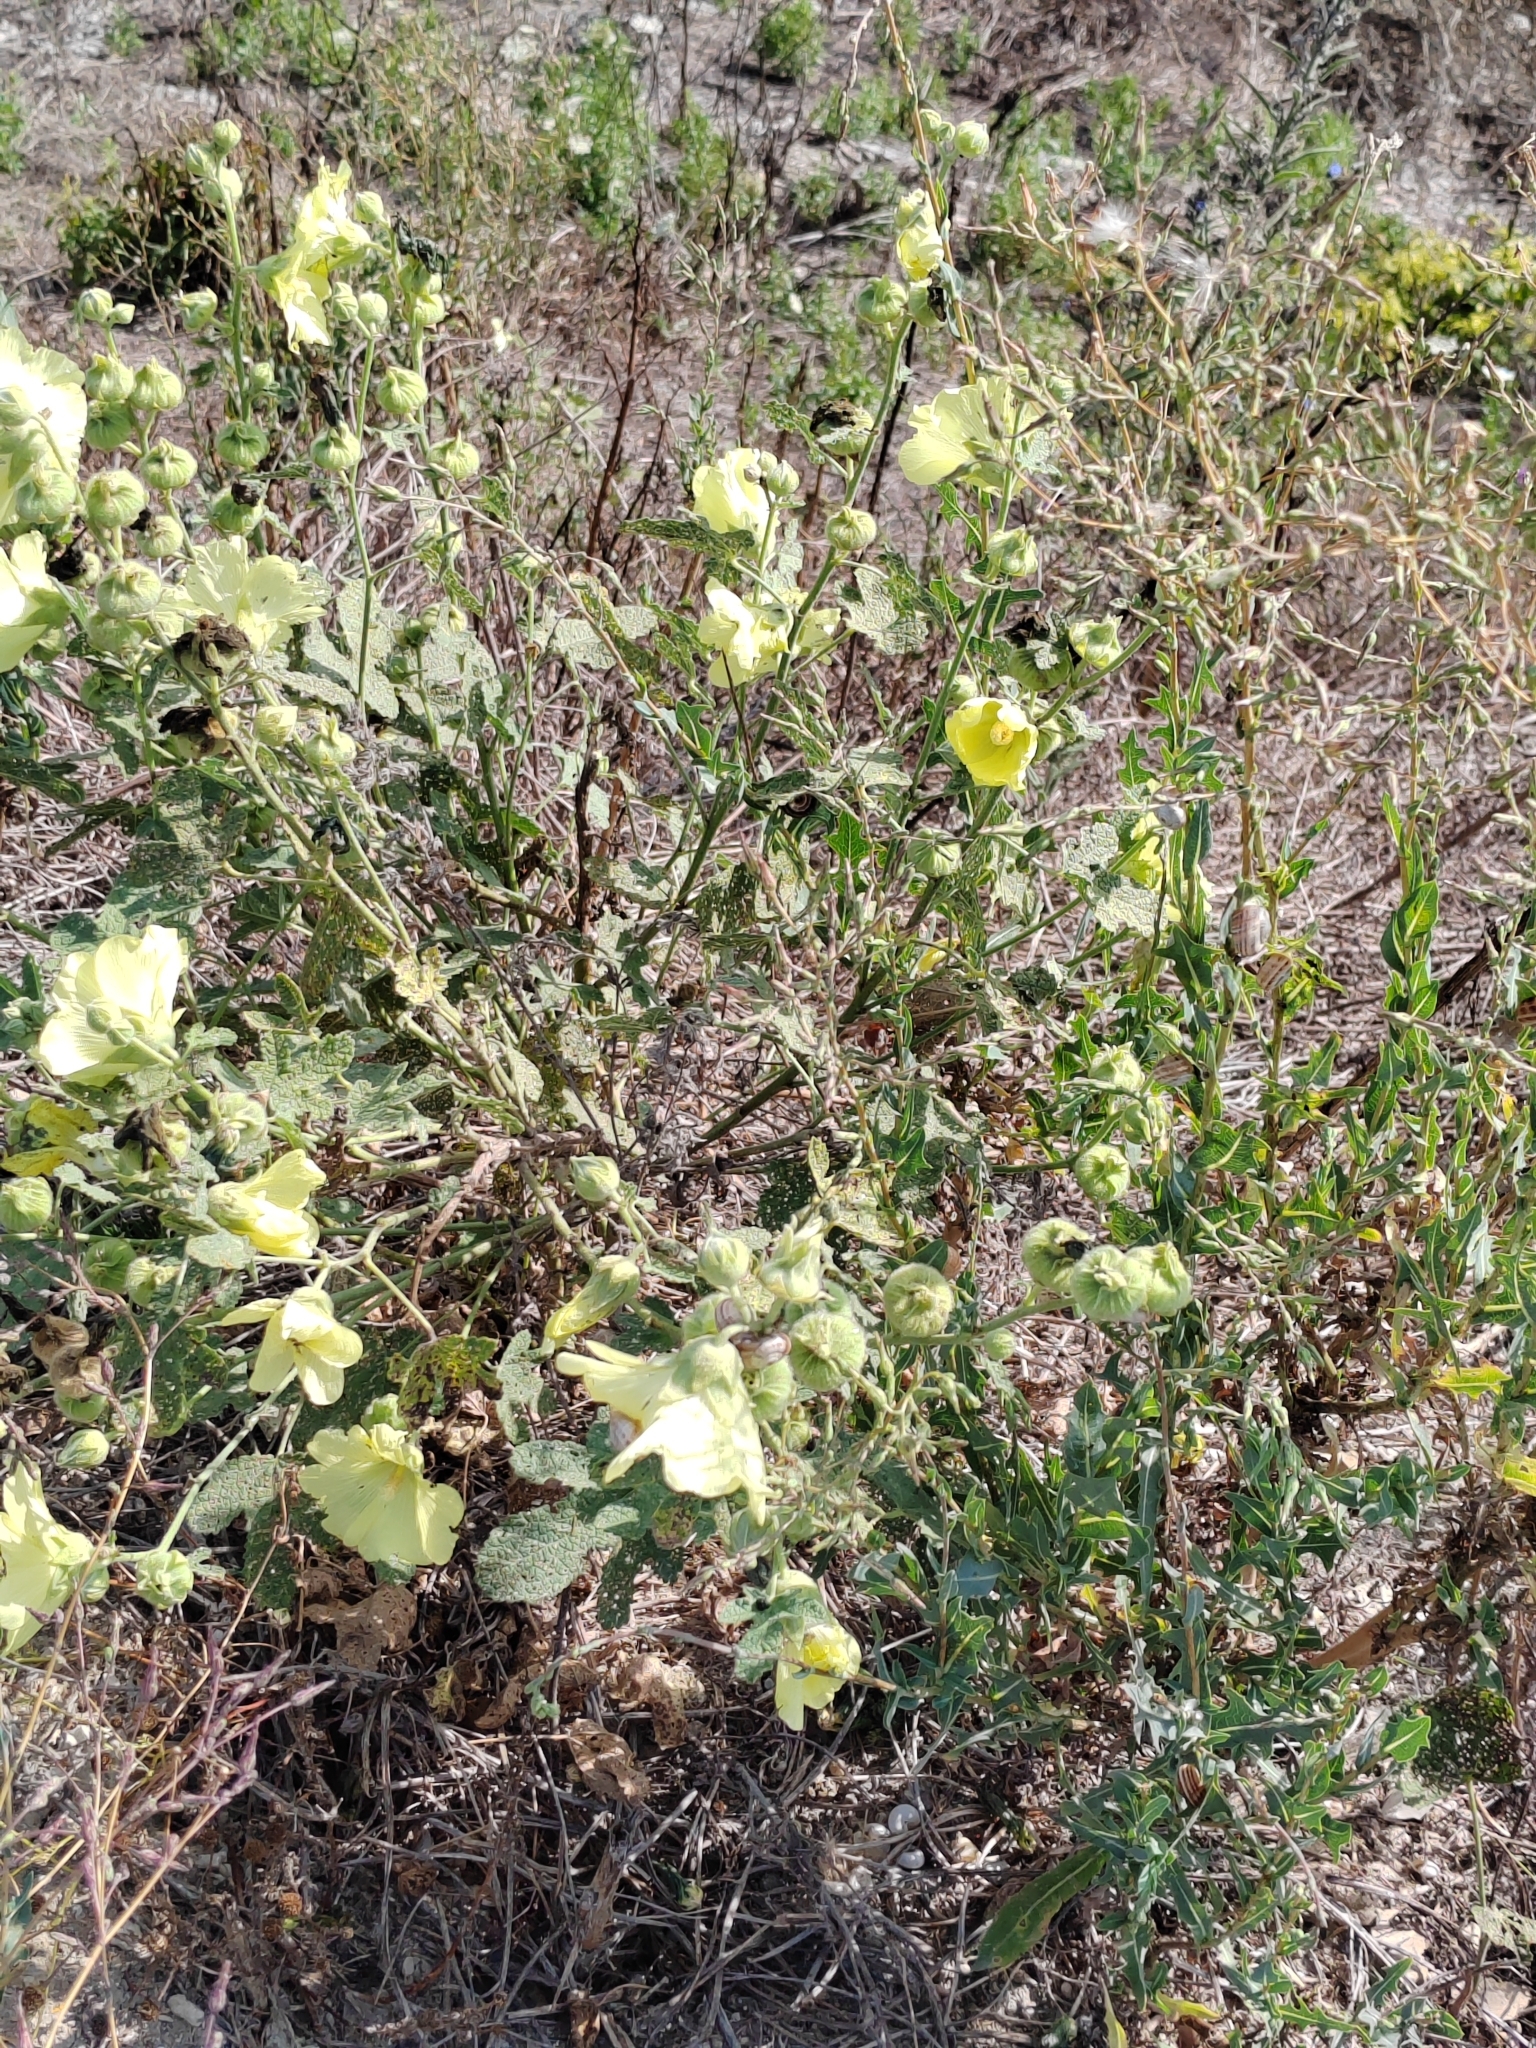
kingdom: Plantae
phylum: Tracheophyta
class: Magnoliopsida
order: Malvales
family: Malvaceae
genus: Alcea
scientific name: Alcea rugosa
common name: Russian hollyhock
